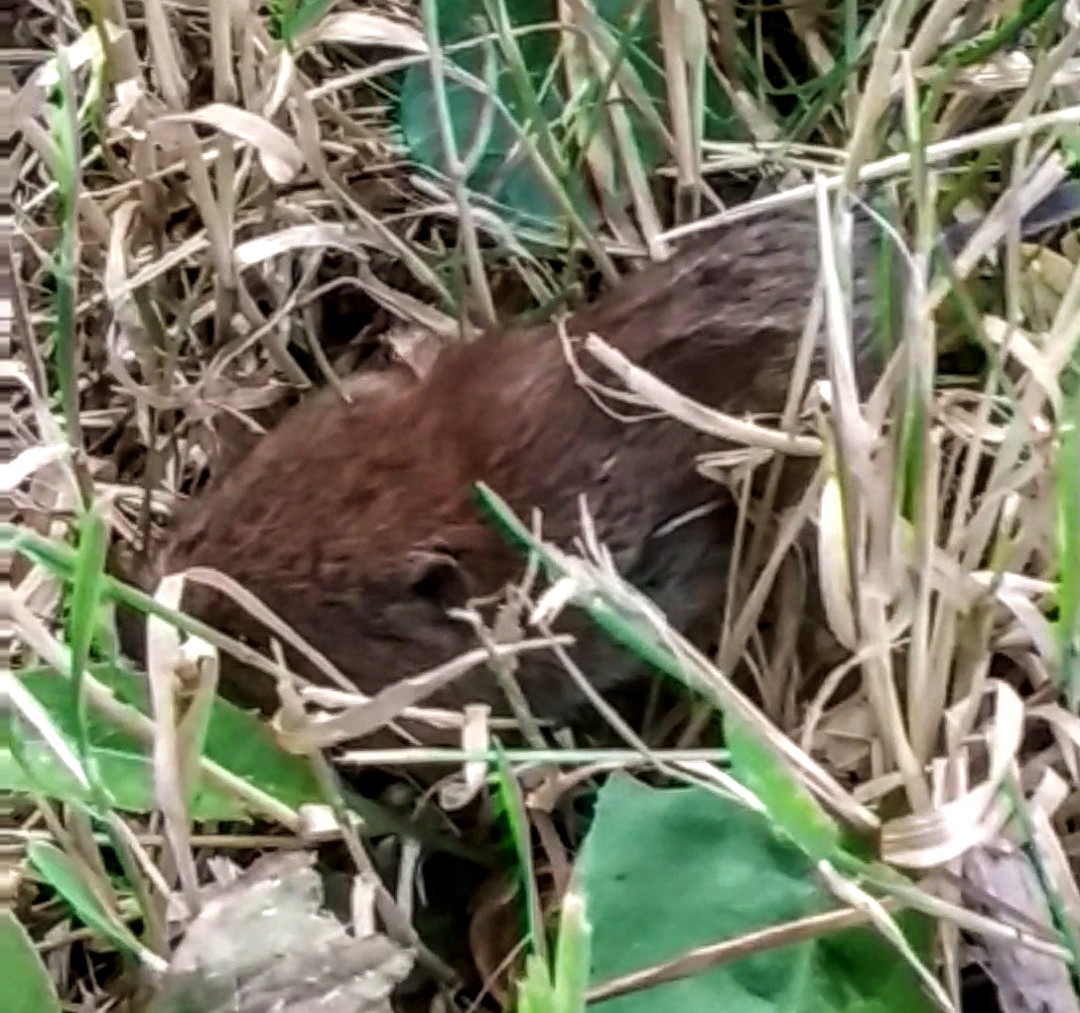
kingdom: Animalia
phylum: Chordata
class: Mammalia
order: Rodentia
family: Cricetidae
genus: Myodes
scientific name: Myodes glareolus
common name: Bank vole
